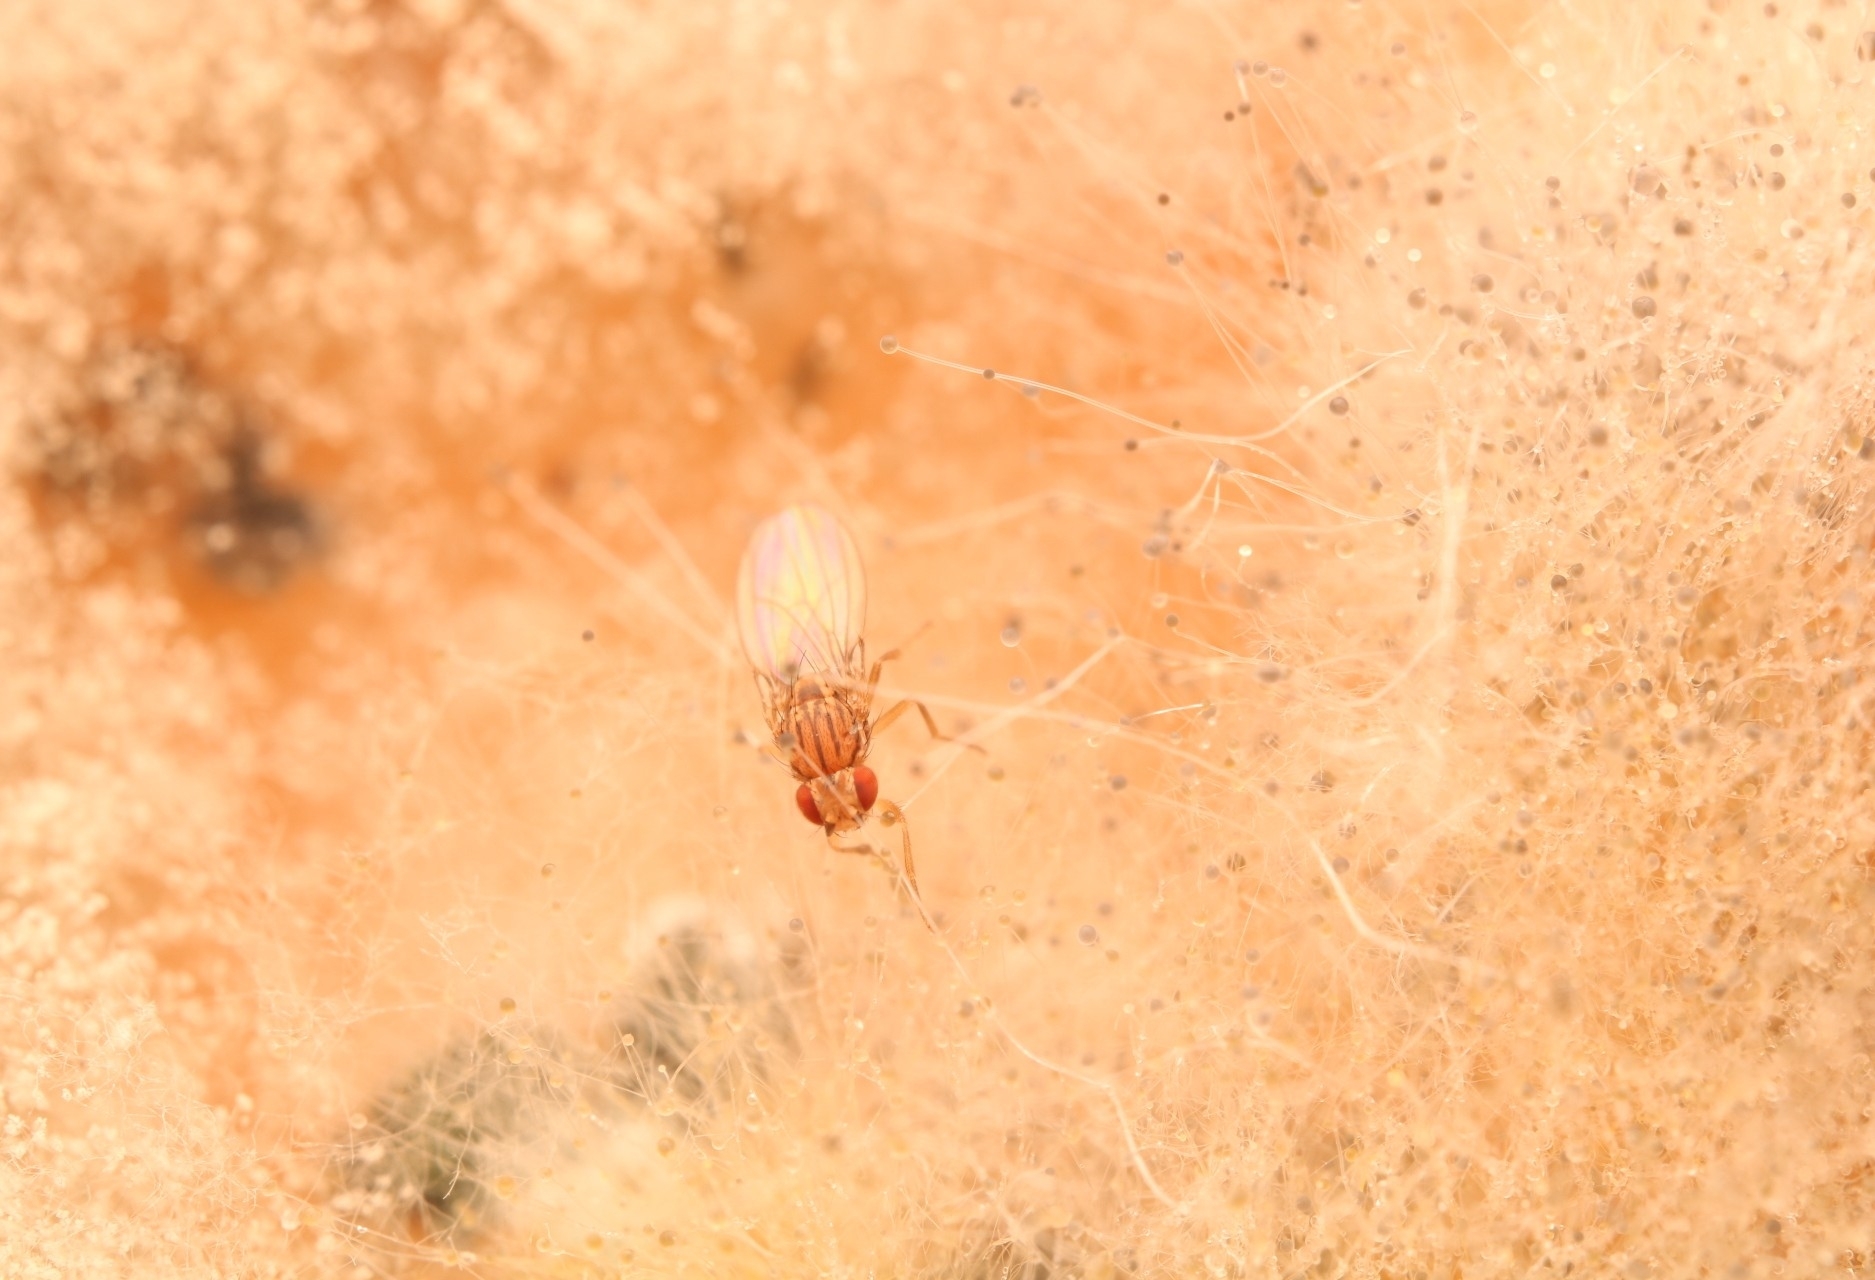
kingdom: Animalia
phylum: Arthropoda
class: Insecta
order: Diptera
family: Drosophilidae
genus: Drosophila
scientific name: Drosophila busckii
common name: Pomace fly
